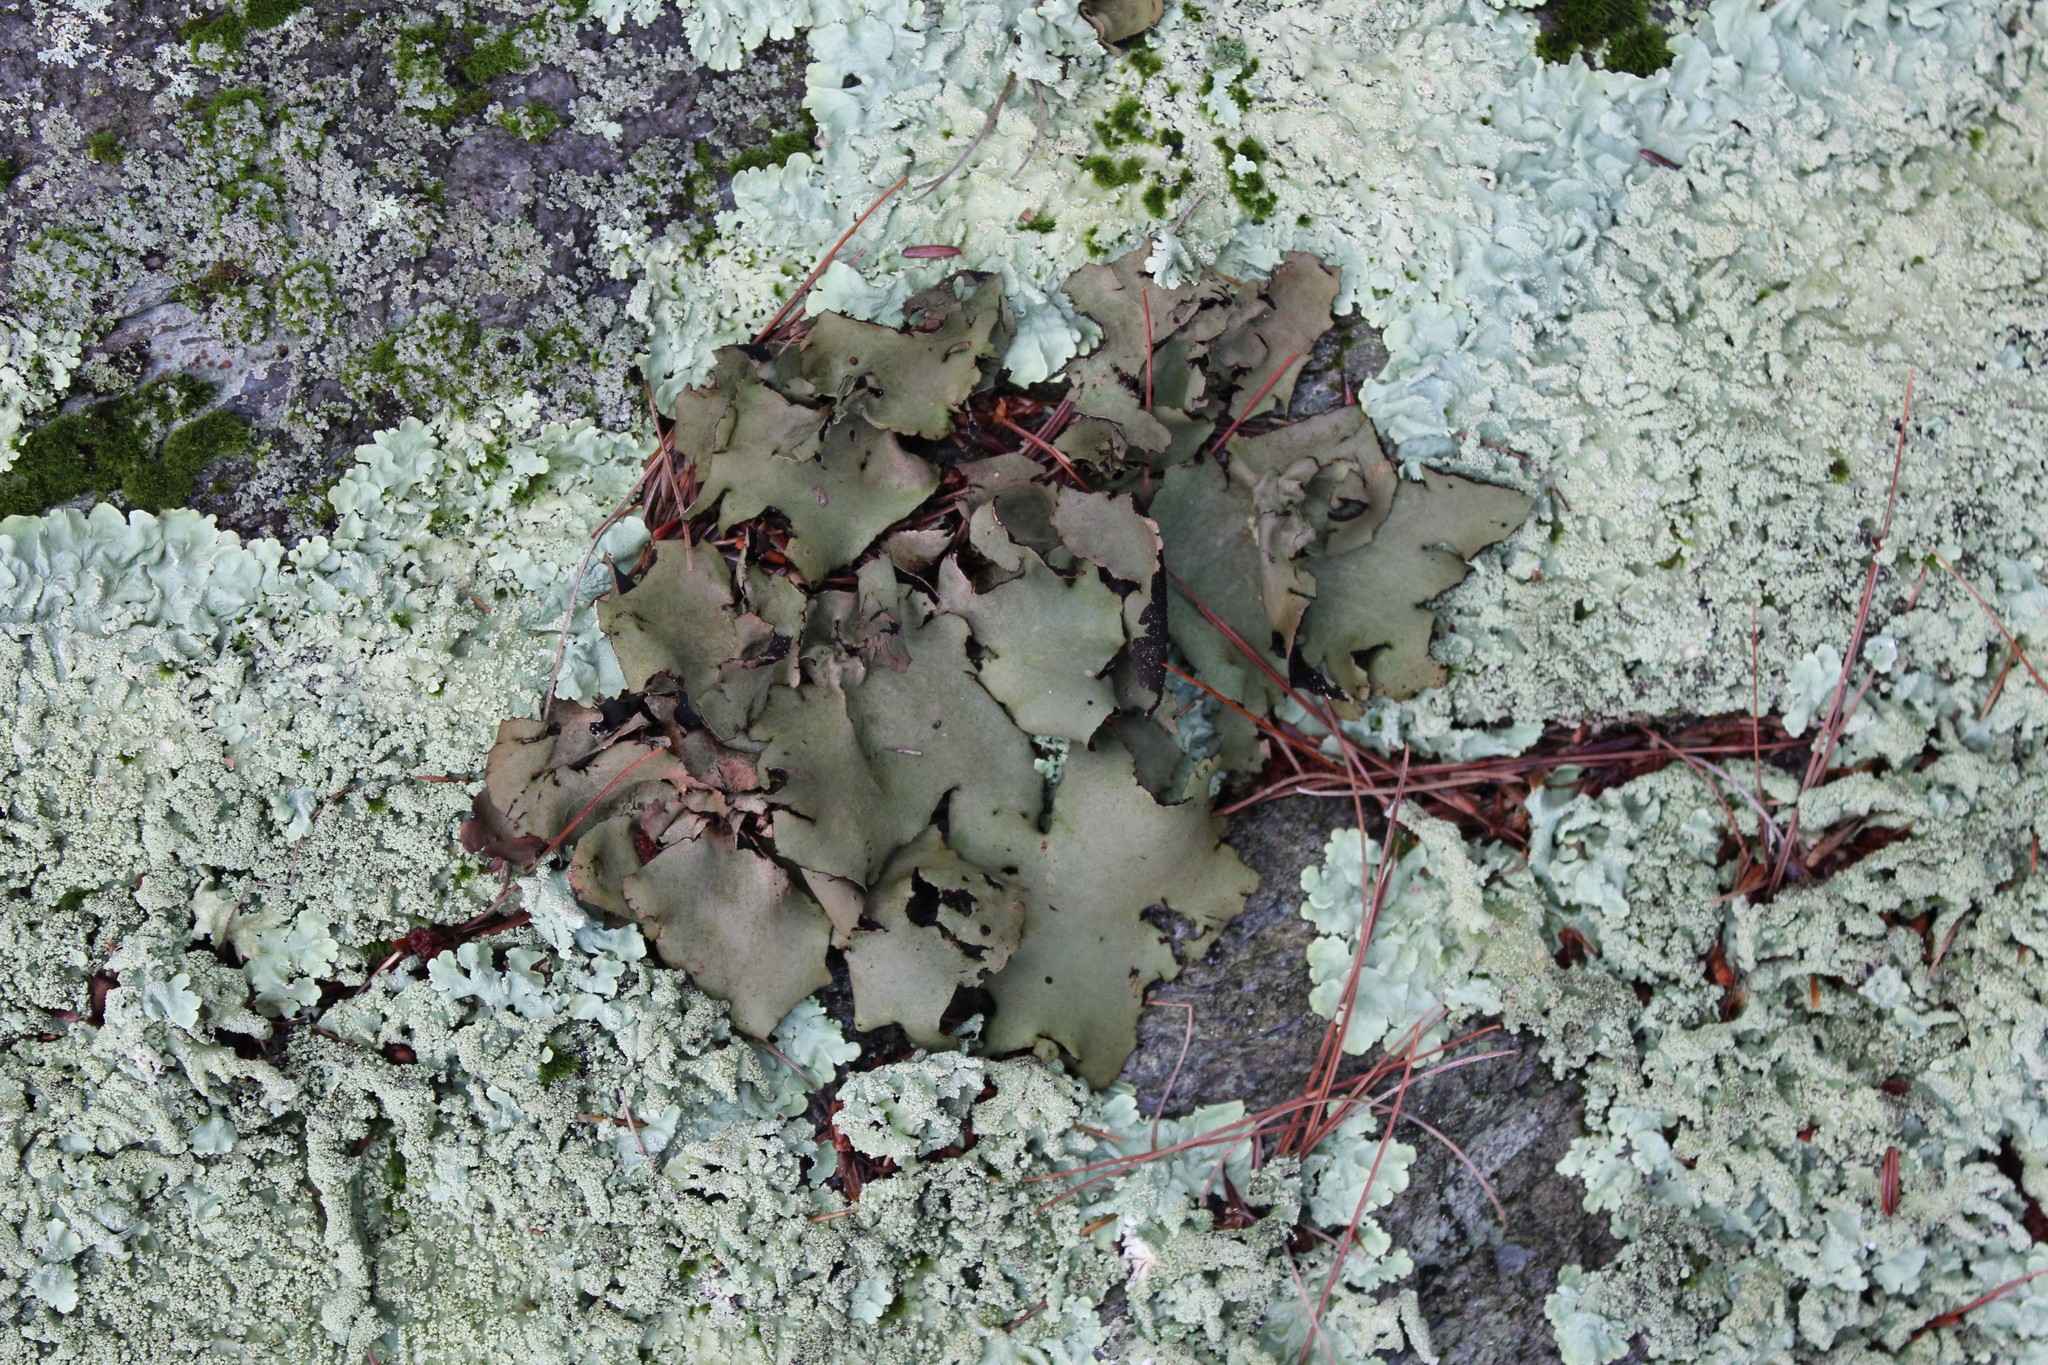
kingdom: Fungi
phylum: Ascomycota
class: Lecanoromycetes
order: Umbilicariales
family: Umbilicariaceae
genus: Umbilicaria
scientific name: Umbilicaria mammulata
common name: Smooth rock tripe
